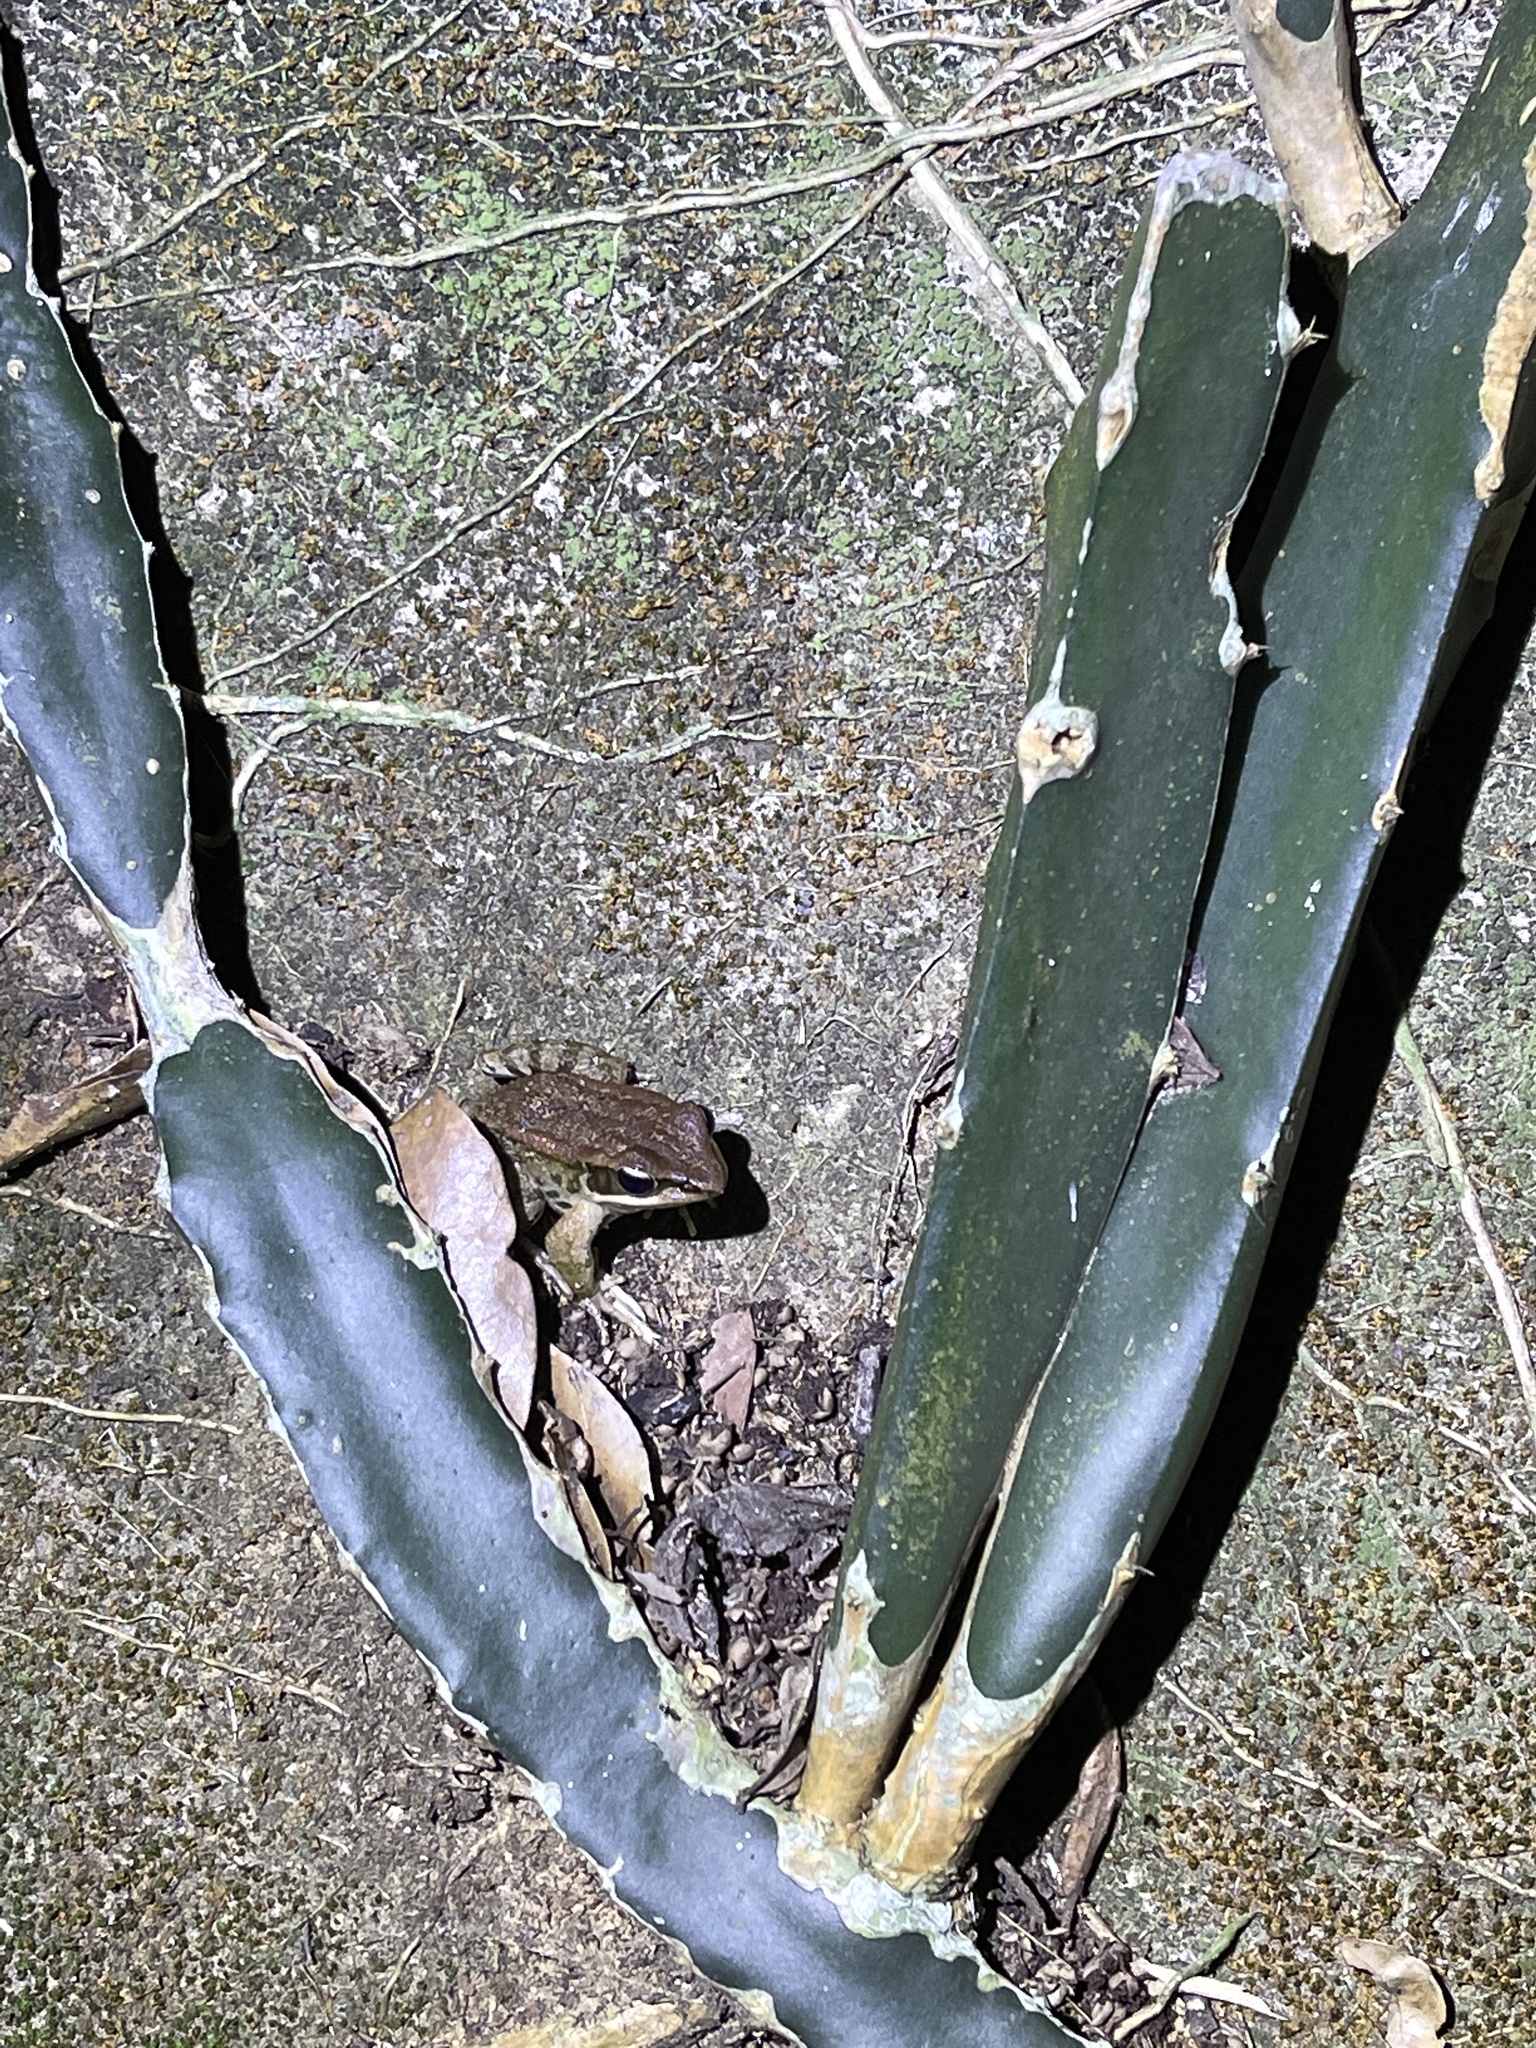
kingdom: Animalia
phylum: Chordata
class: Amphibia
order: Anura
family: Ranidae
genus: Hylarana
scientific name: Hylarana latouchii
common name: Broad-folded frog
